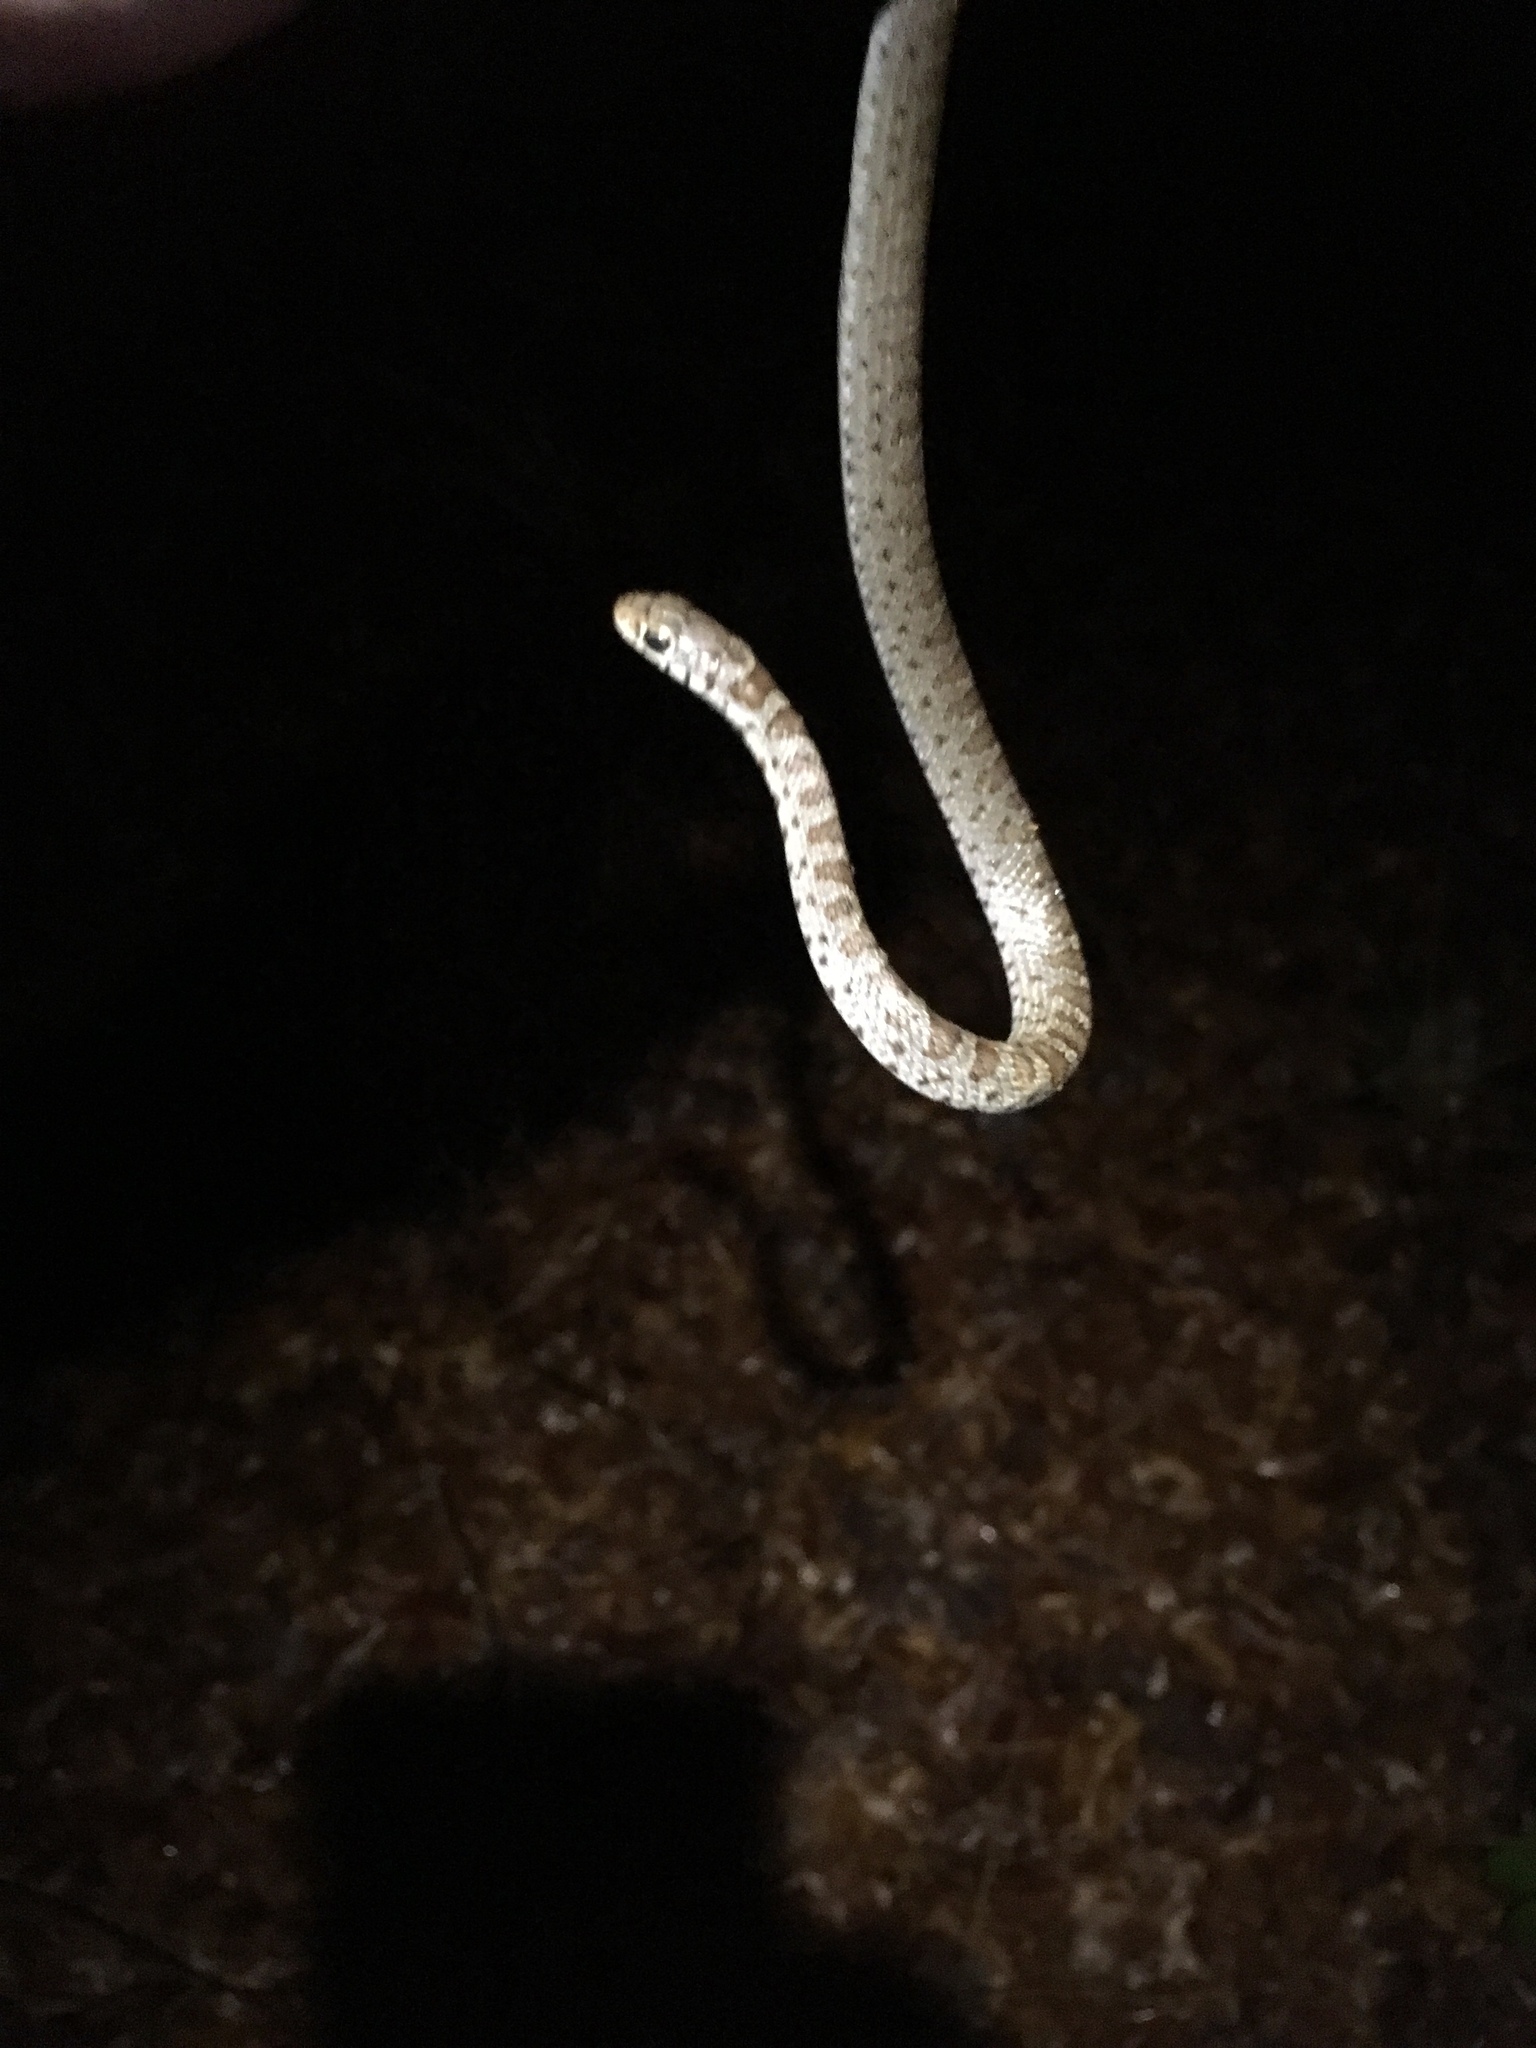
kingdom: Animalia
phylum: Chordata
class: Squamata
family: Colubridae
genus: Coluber
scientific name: Coluber constrictor
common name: Eastern racer
